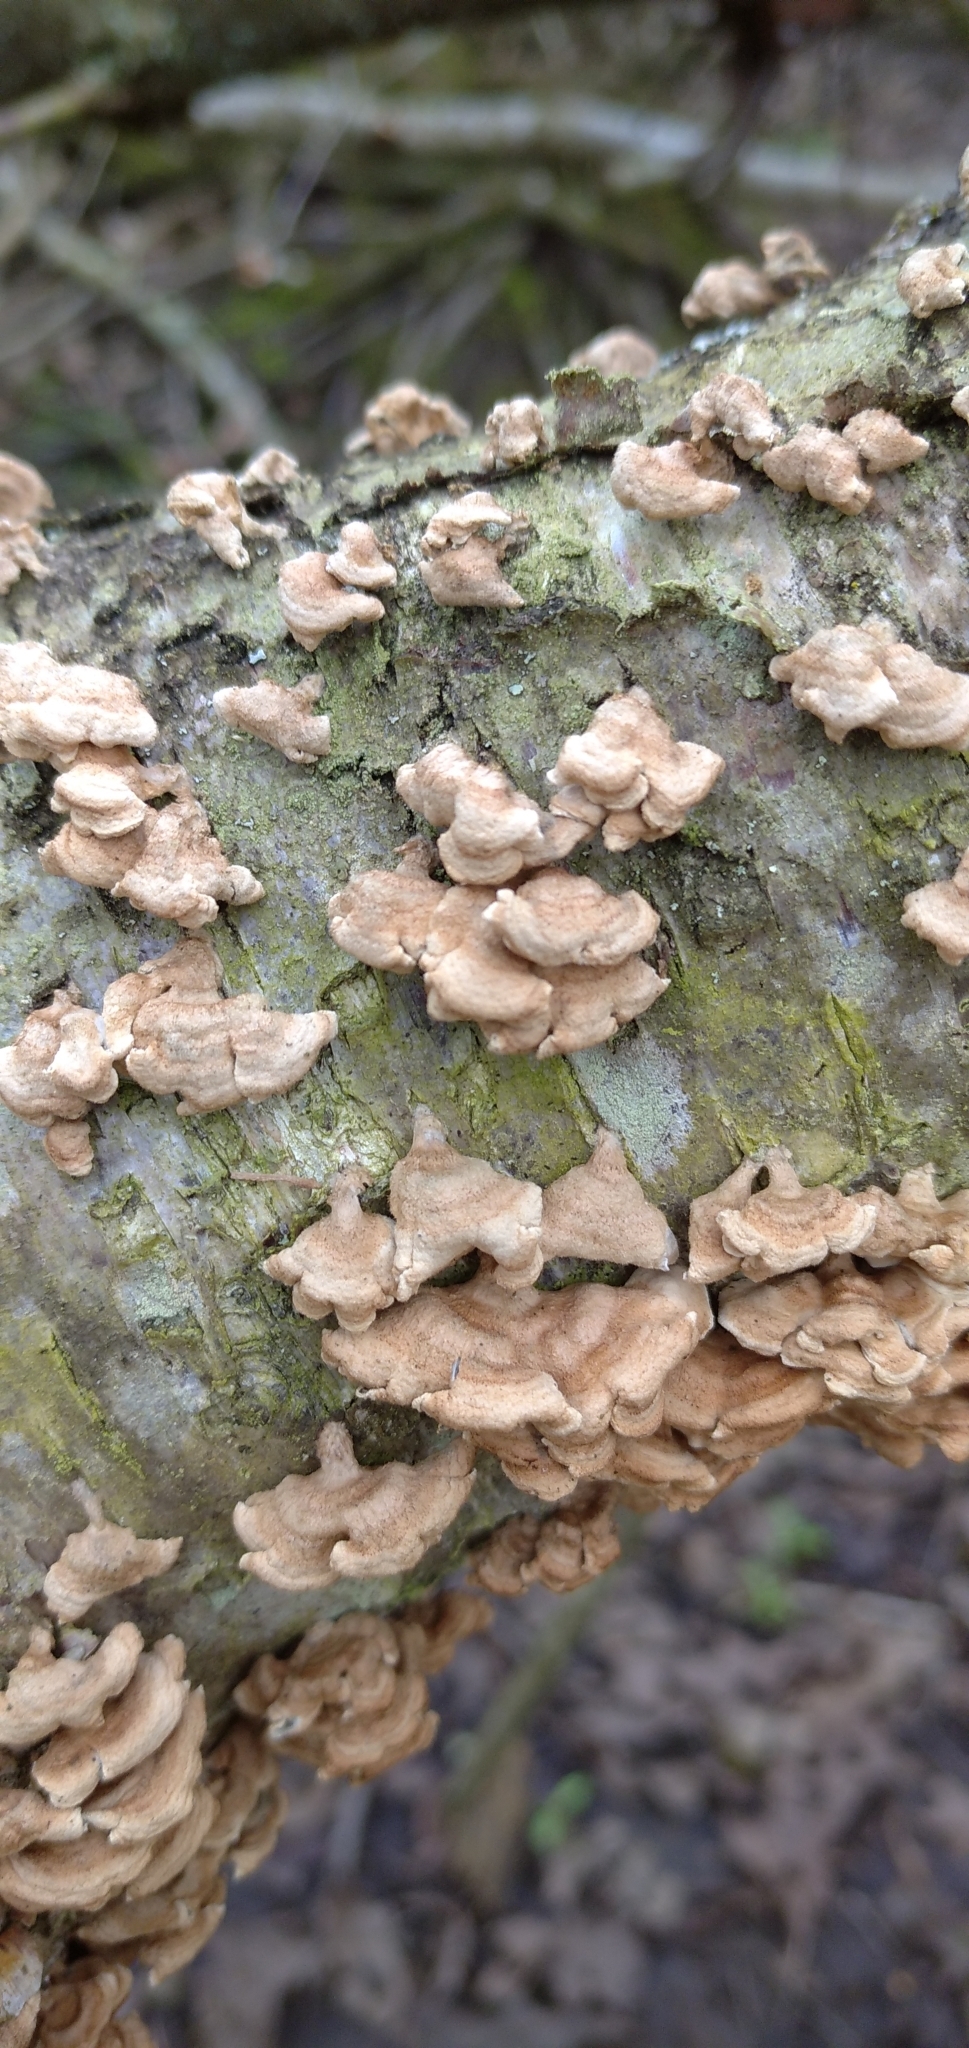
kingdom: Fungi
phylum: Basidiomycota
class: Agaricomycetes
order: Amylocorticiales
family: Amylocorticiaceae
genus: Plicaturopsis
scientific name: Plicaturopsis crispa
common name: Crimped gill
